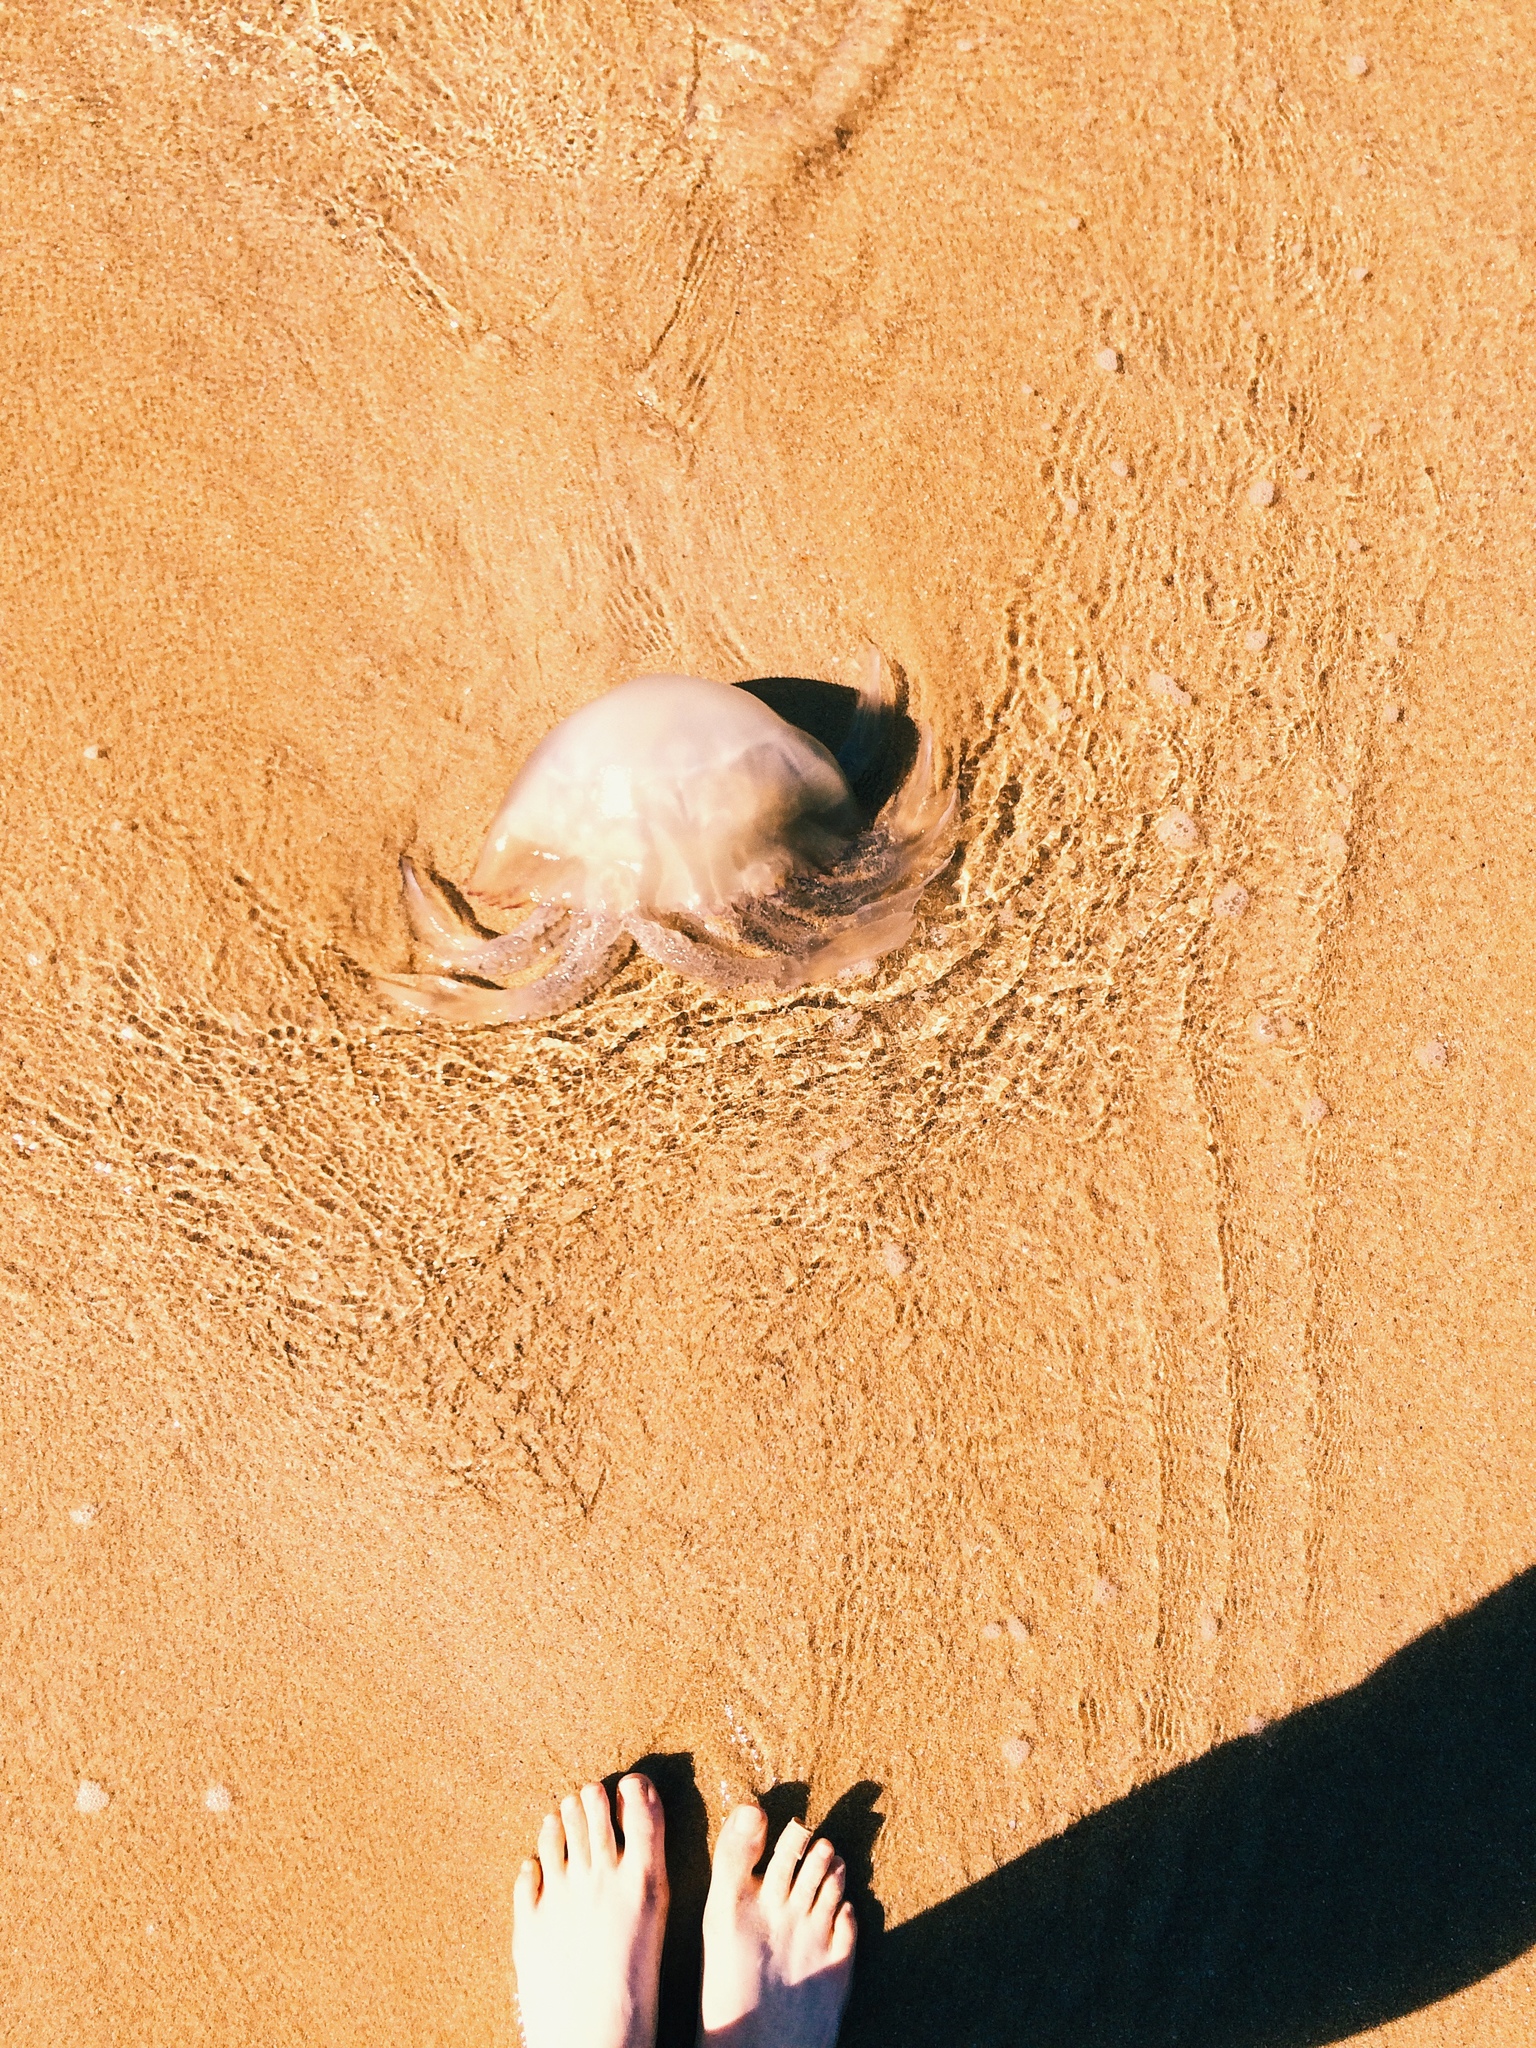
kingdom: Animalia
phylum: Cnidaria
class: Scyphozoa
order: Rhizostomeae
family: Rhizostomatidae
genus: Rhizostoma
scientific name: Rhizostoma octopus
